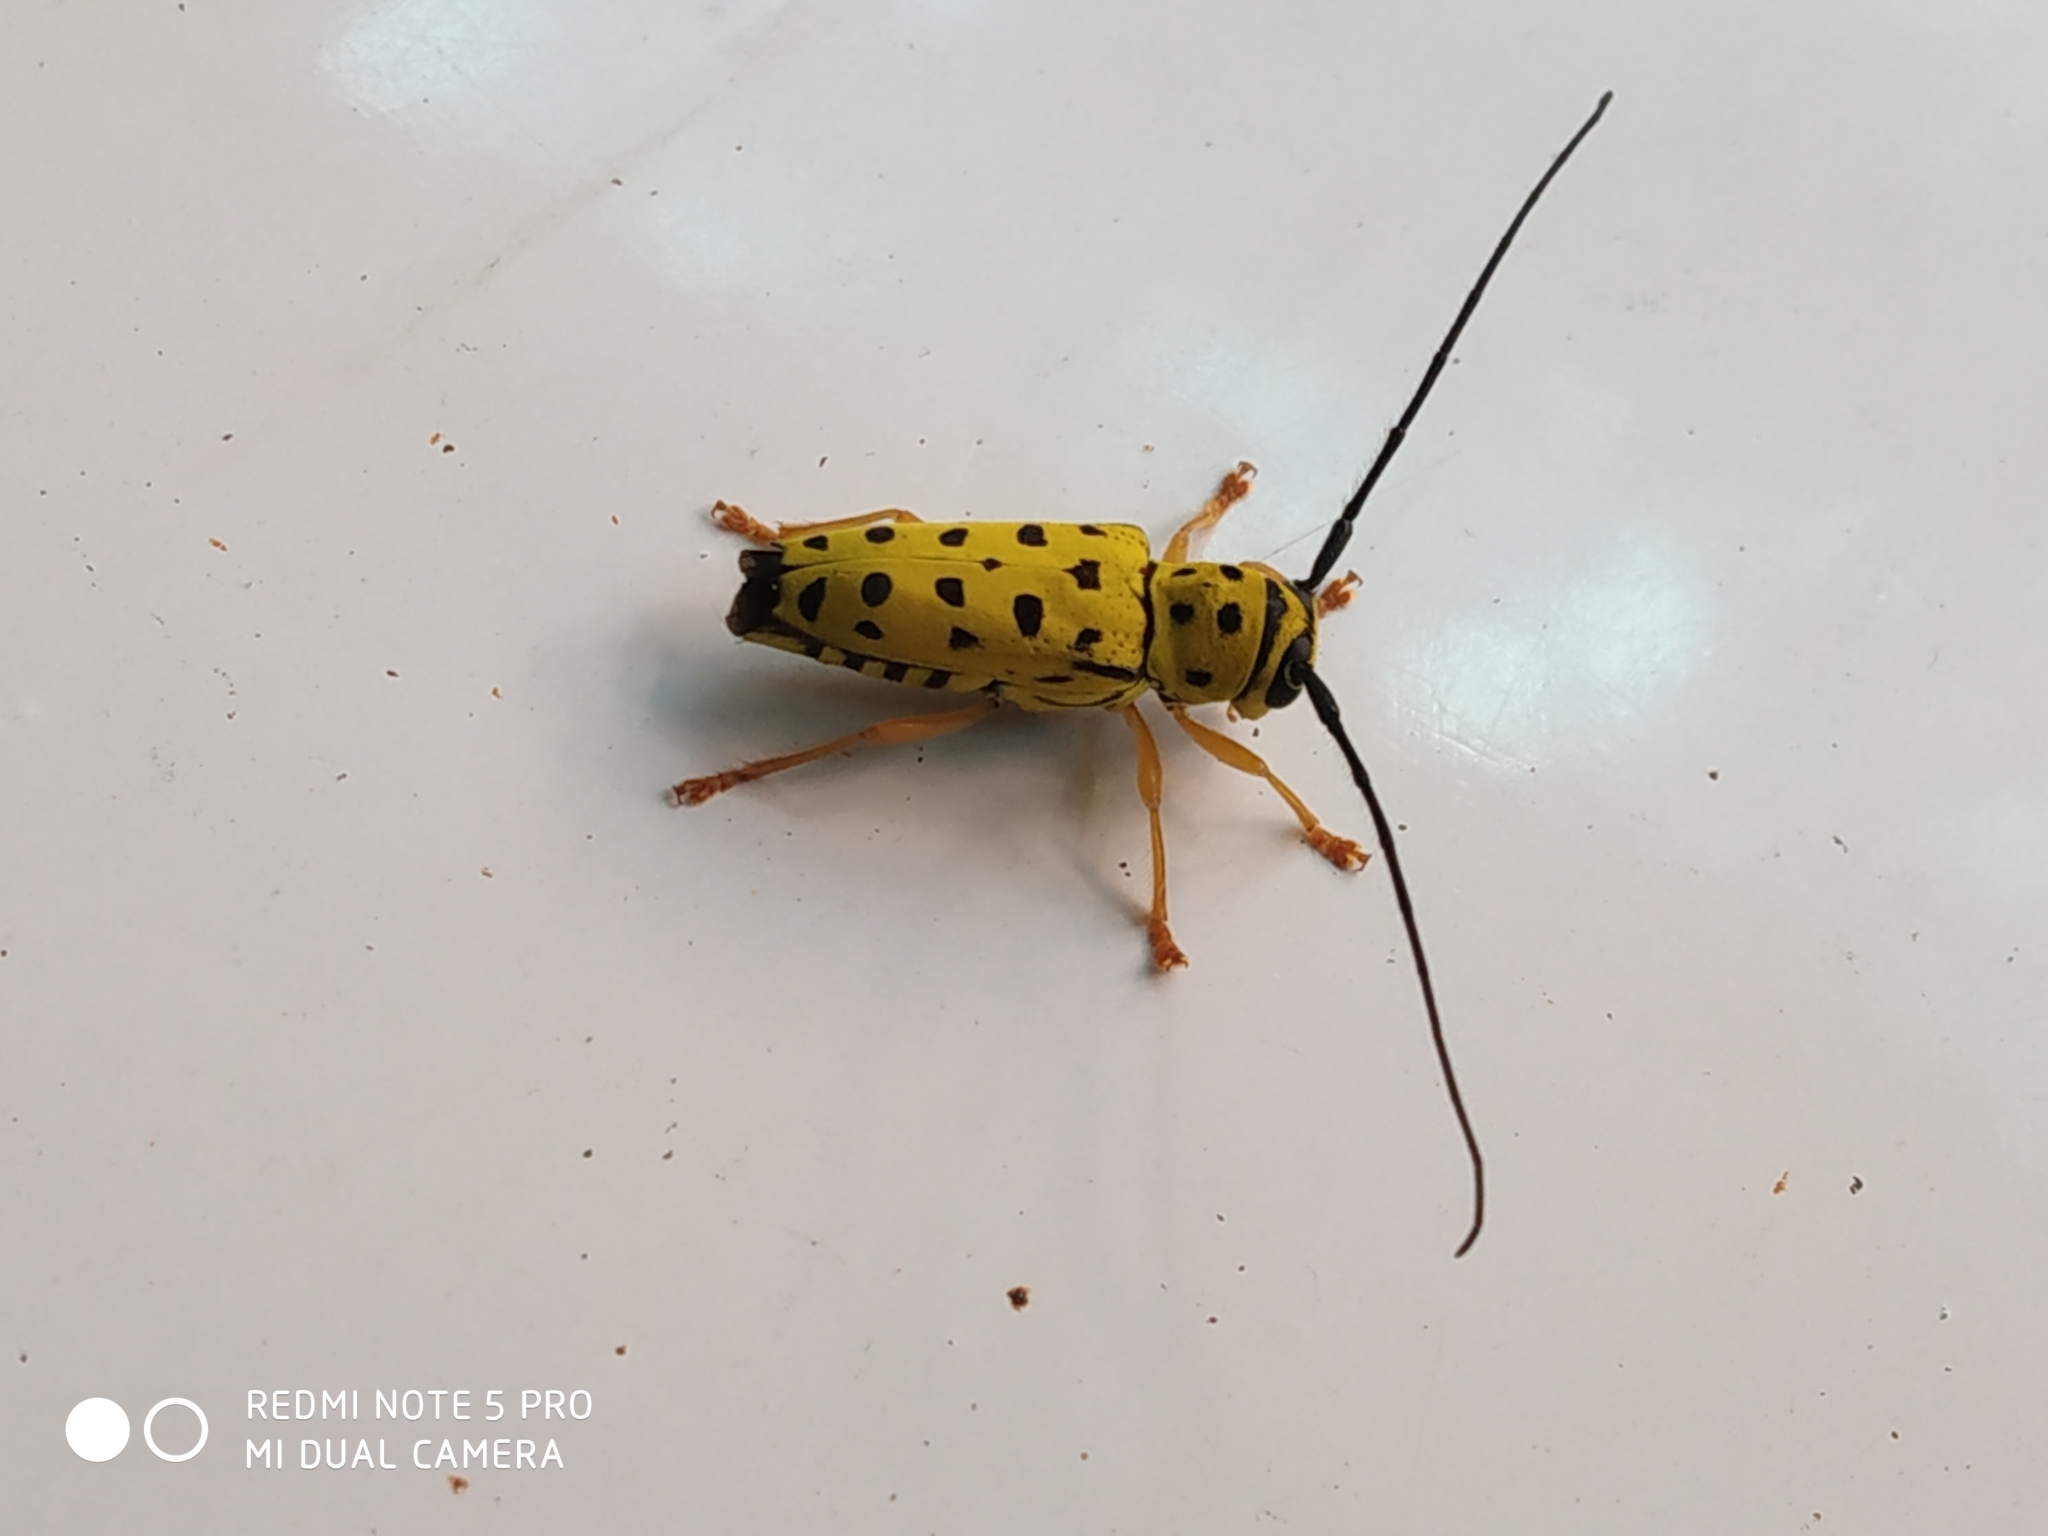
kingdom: Animalia
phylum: Arthropoda
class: Insecta
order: Coleoptera
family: Cerambycidae
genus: Glenea
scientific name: Glenea multiguttata
